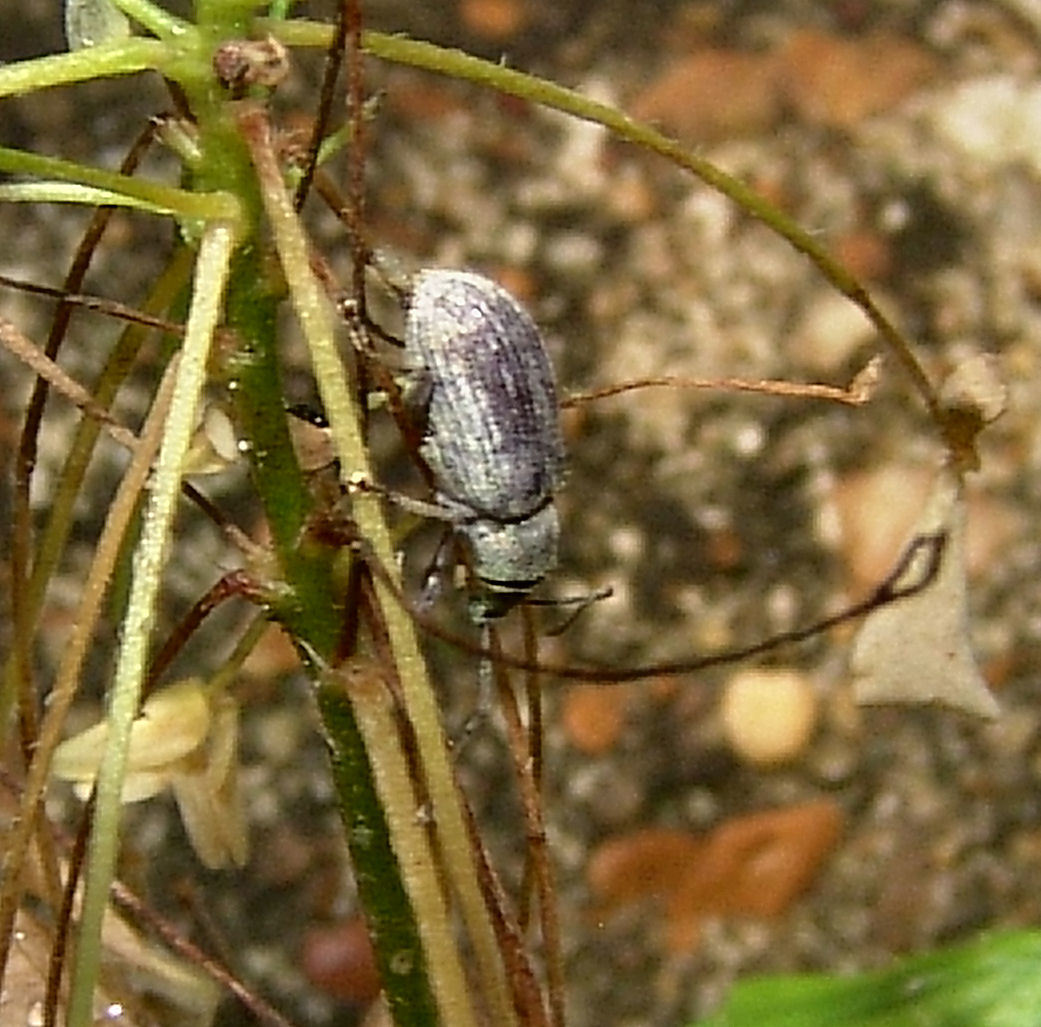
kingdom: Animalia
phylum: Arthropoda
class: Insecta
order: Coleoptera
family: Curculionidae
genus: Cyrtepistomus
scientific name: Cyrtepistomus castaneus
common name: Weevil
